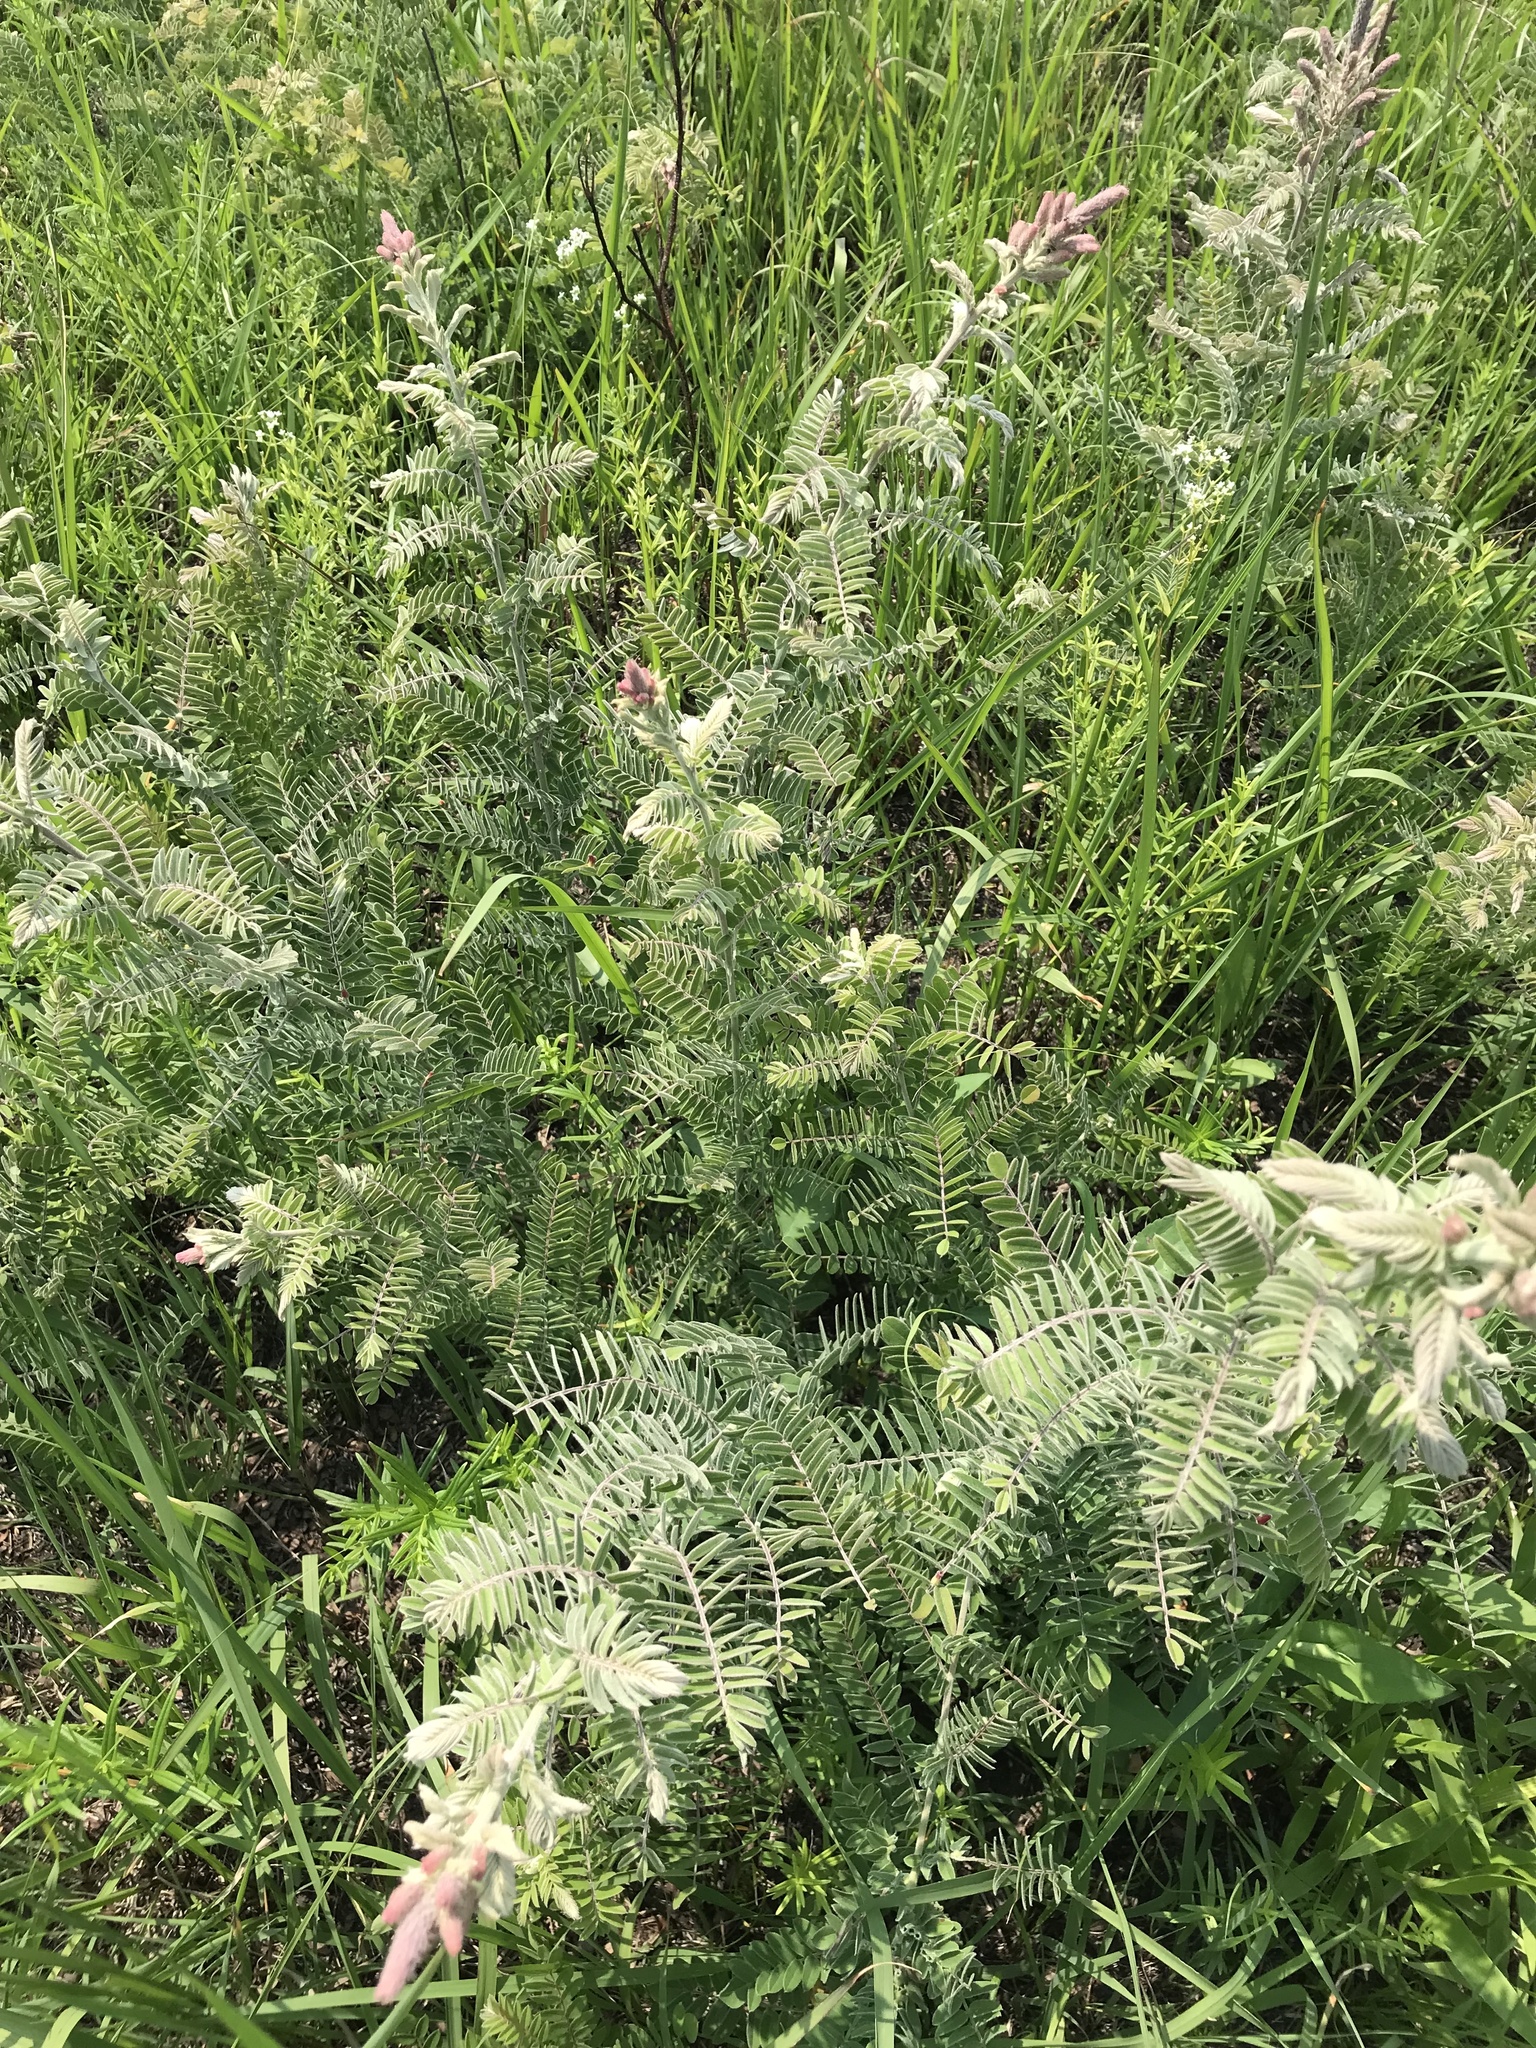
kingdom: Plantae
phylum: Tracheophyta
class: Magnoliopsida
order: Fabales
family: Fabaceae
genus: Amorpha
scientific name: Amorpha canescens
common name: Leadplant
